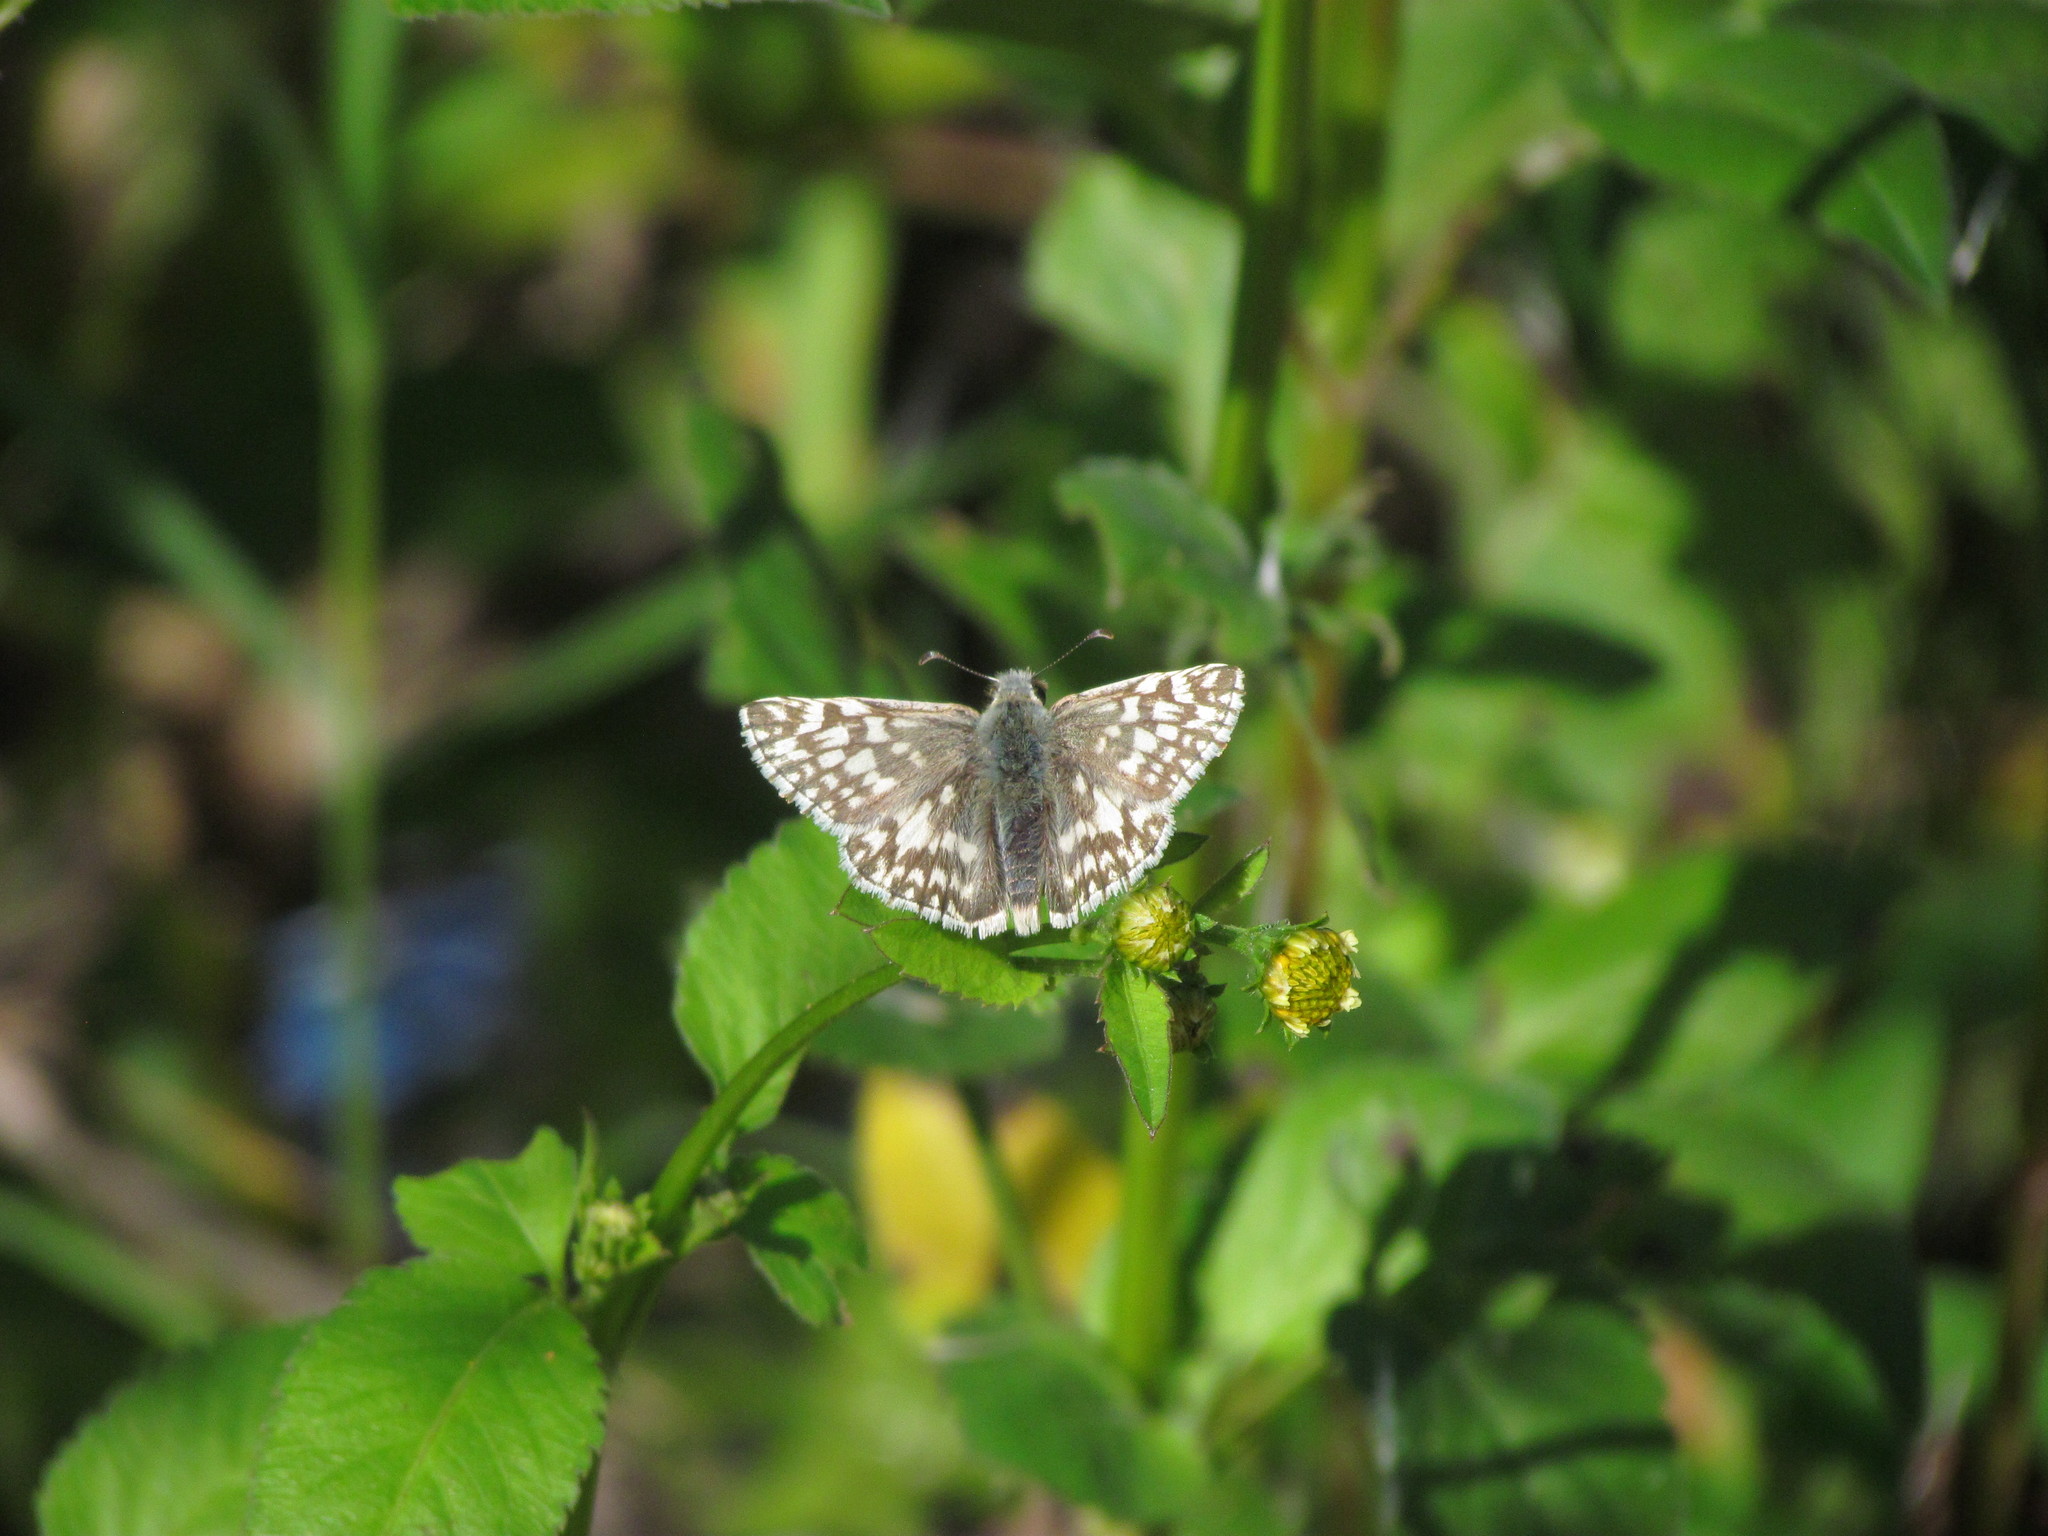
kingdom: Animalia
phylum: Arthropoda
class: Insecta
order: Lepidoptera
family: Hesperiidae
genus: Heliopetes
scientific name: Heliopetes americanus
